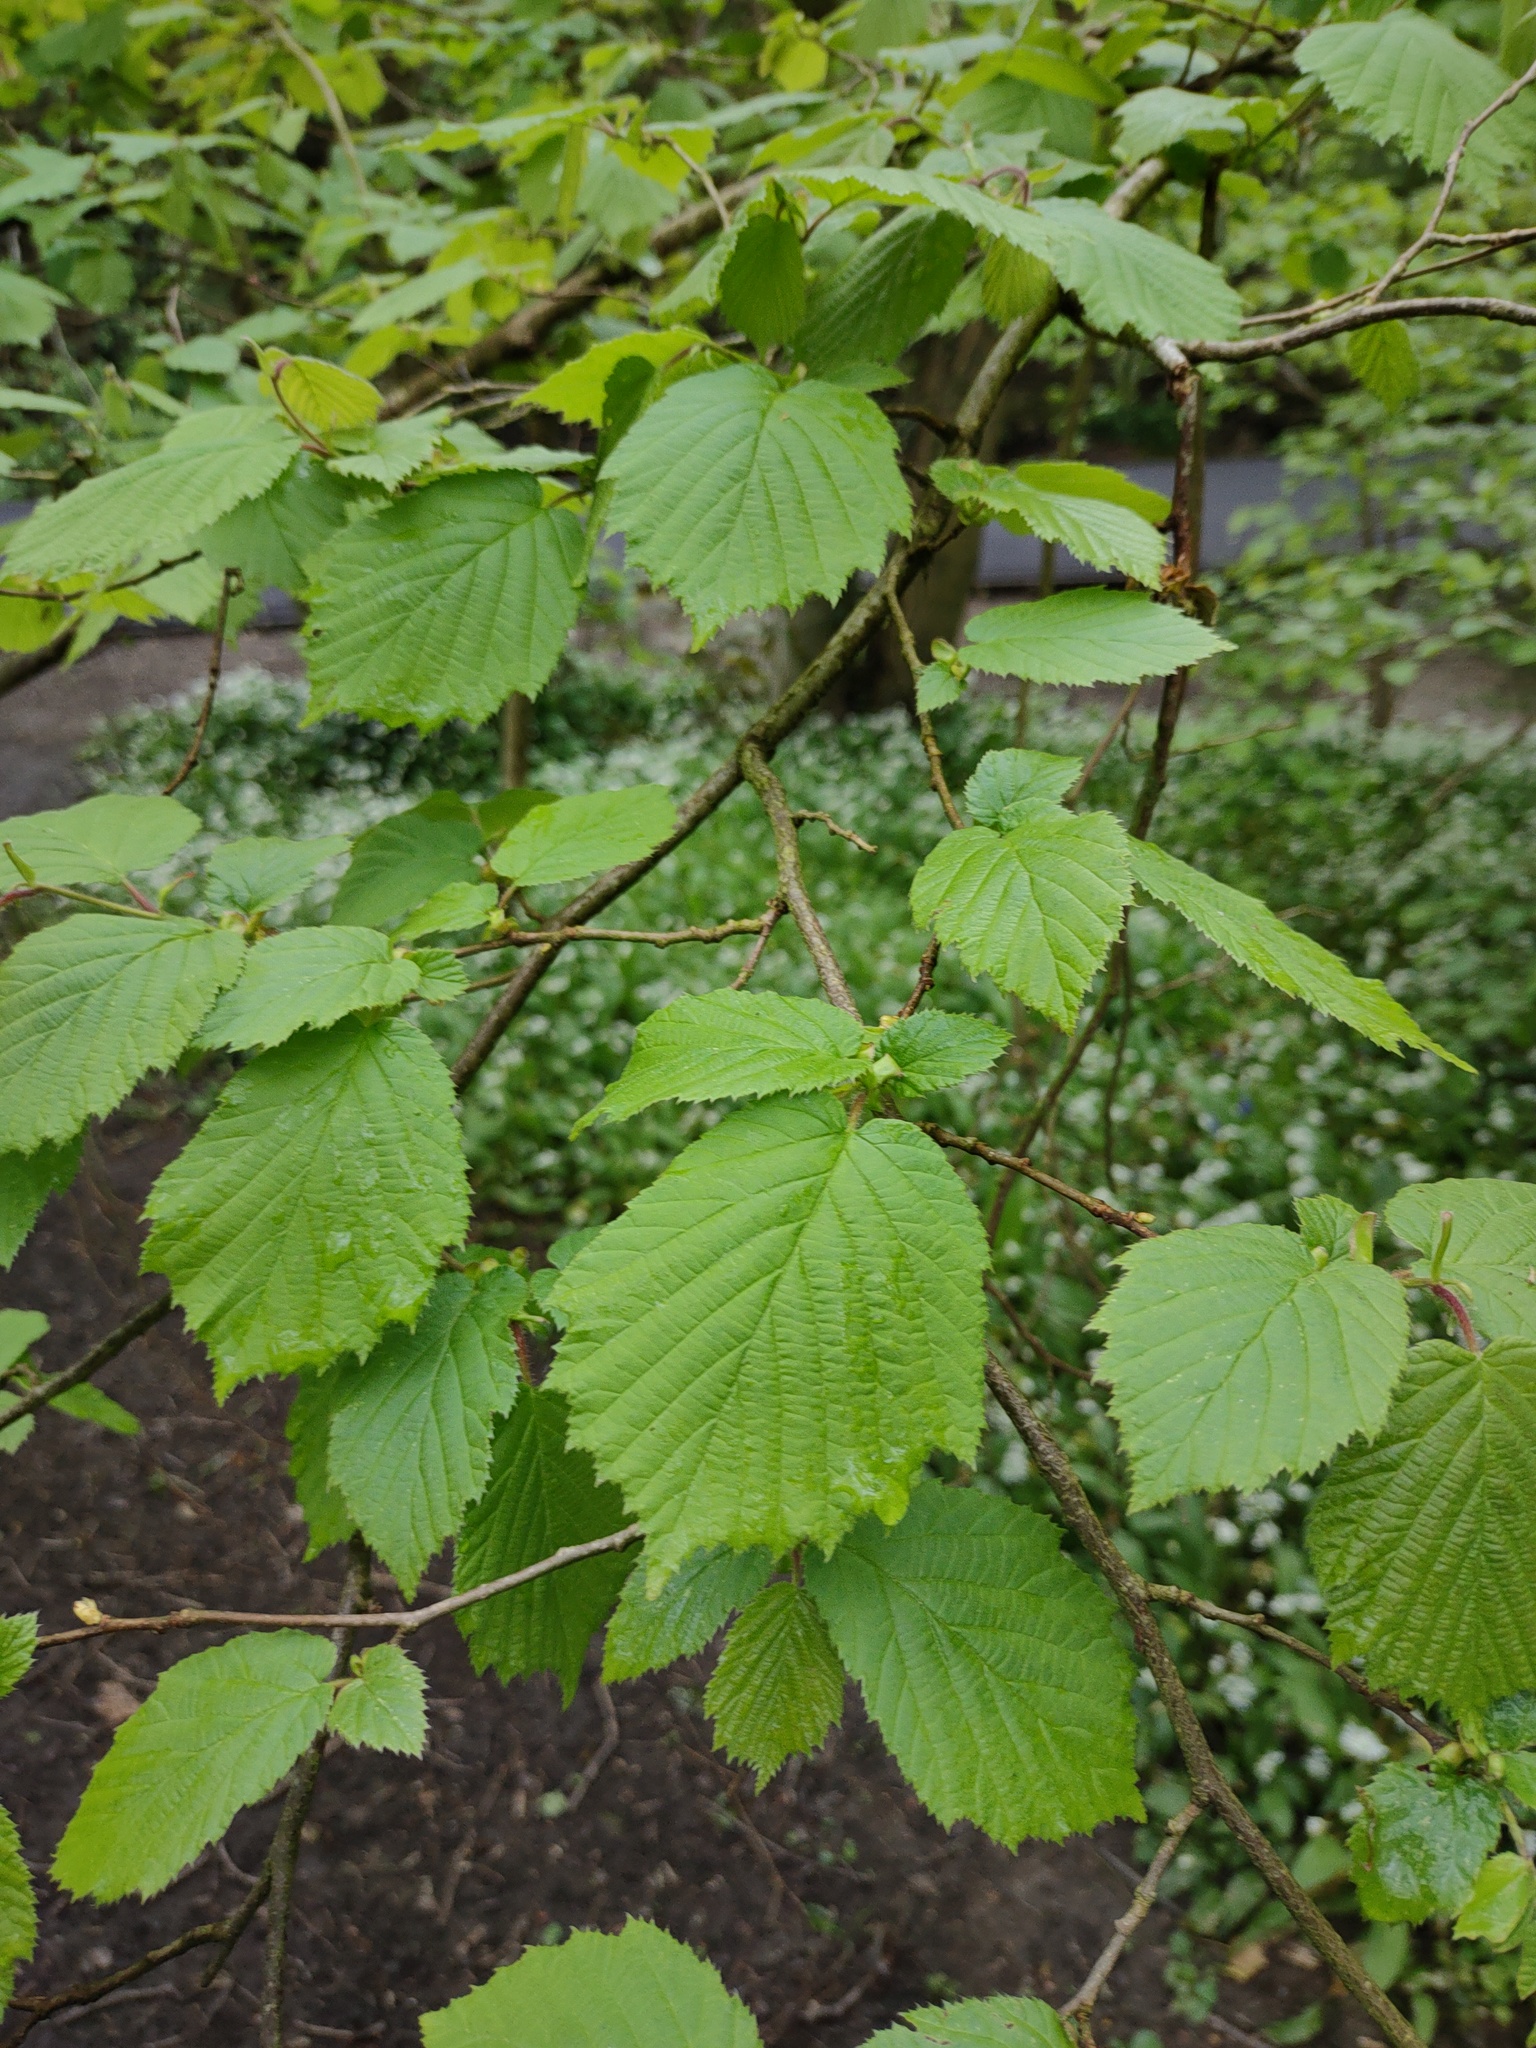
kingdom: Plantae
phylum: Tracheophyta
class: Magnoliopsida
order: Fagales
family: Betulaceae
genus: Corylus
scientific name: Corylus avellana
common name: European hazel
